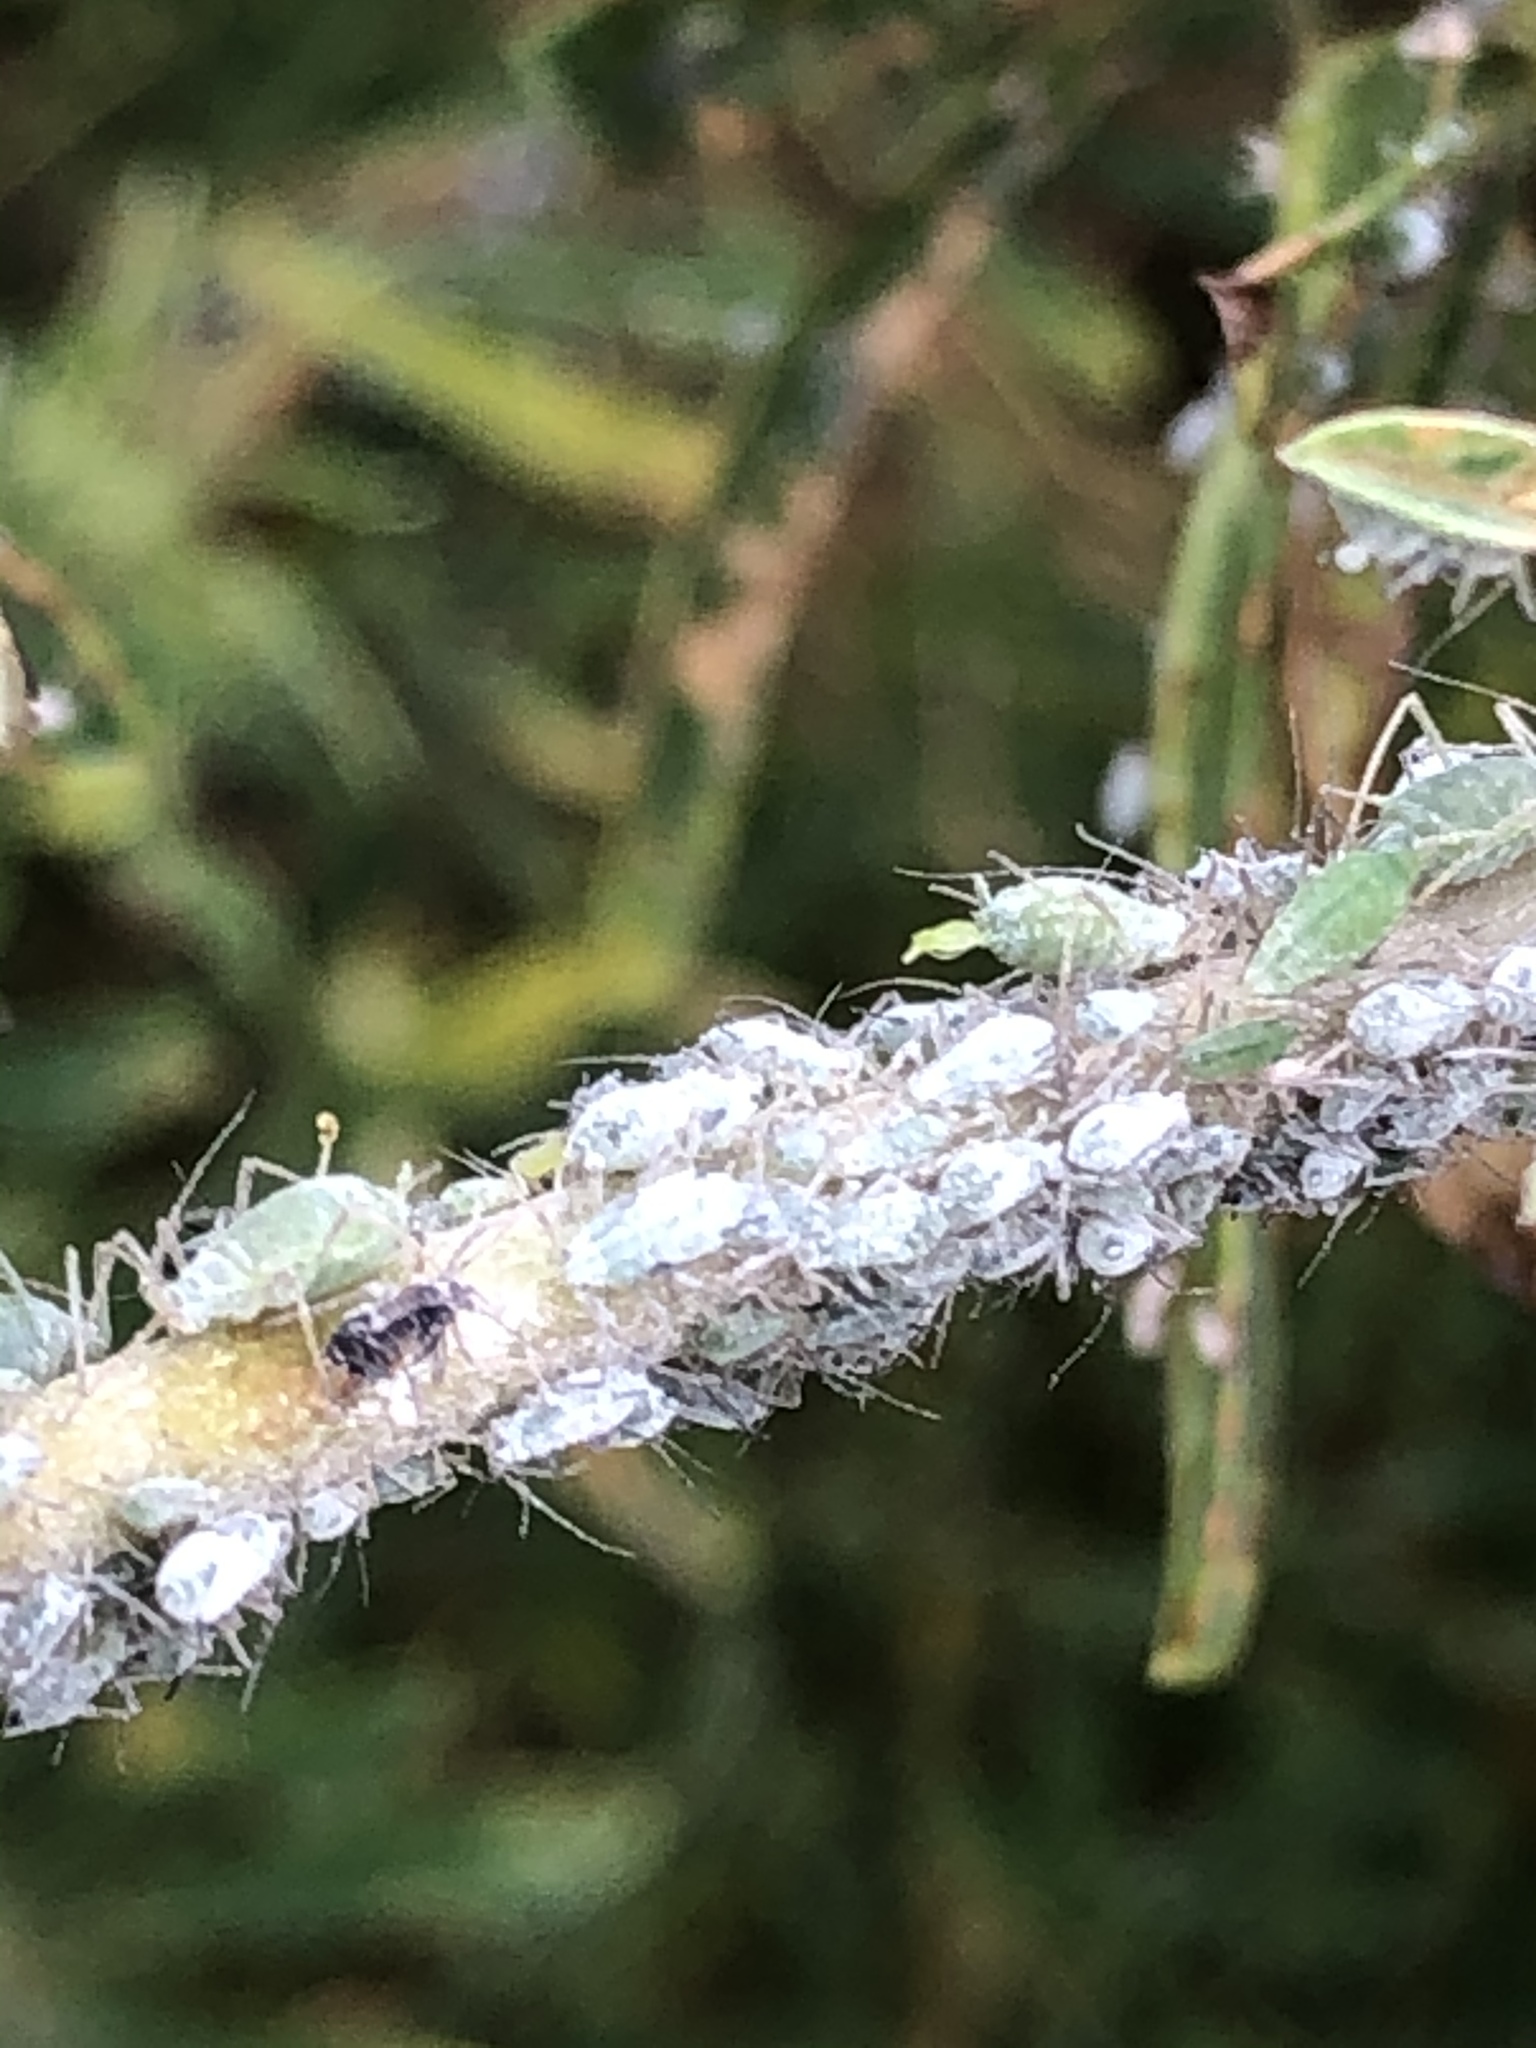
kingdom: Animalia
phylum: Arthropoda
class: Insecta
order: Hemiptera
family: Aphididae
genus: Macrosiphum
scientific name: Macrosiphum albifrons
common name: Lupine aphid
